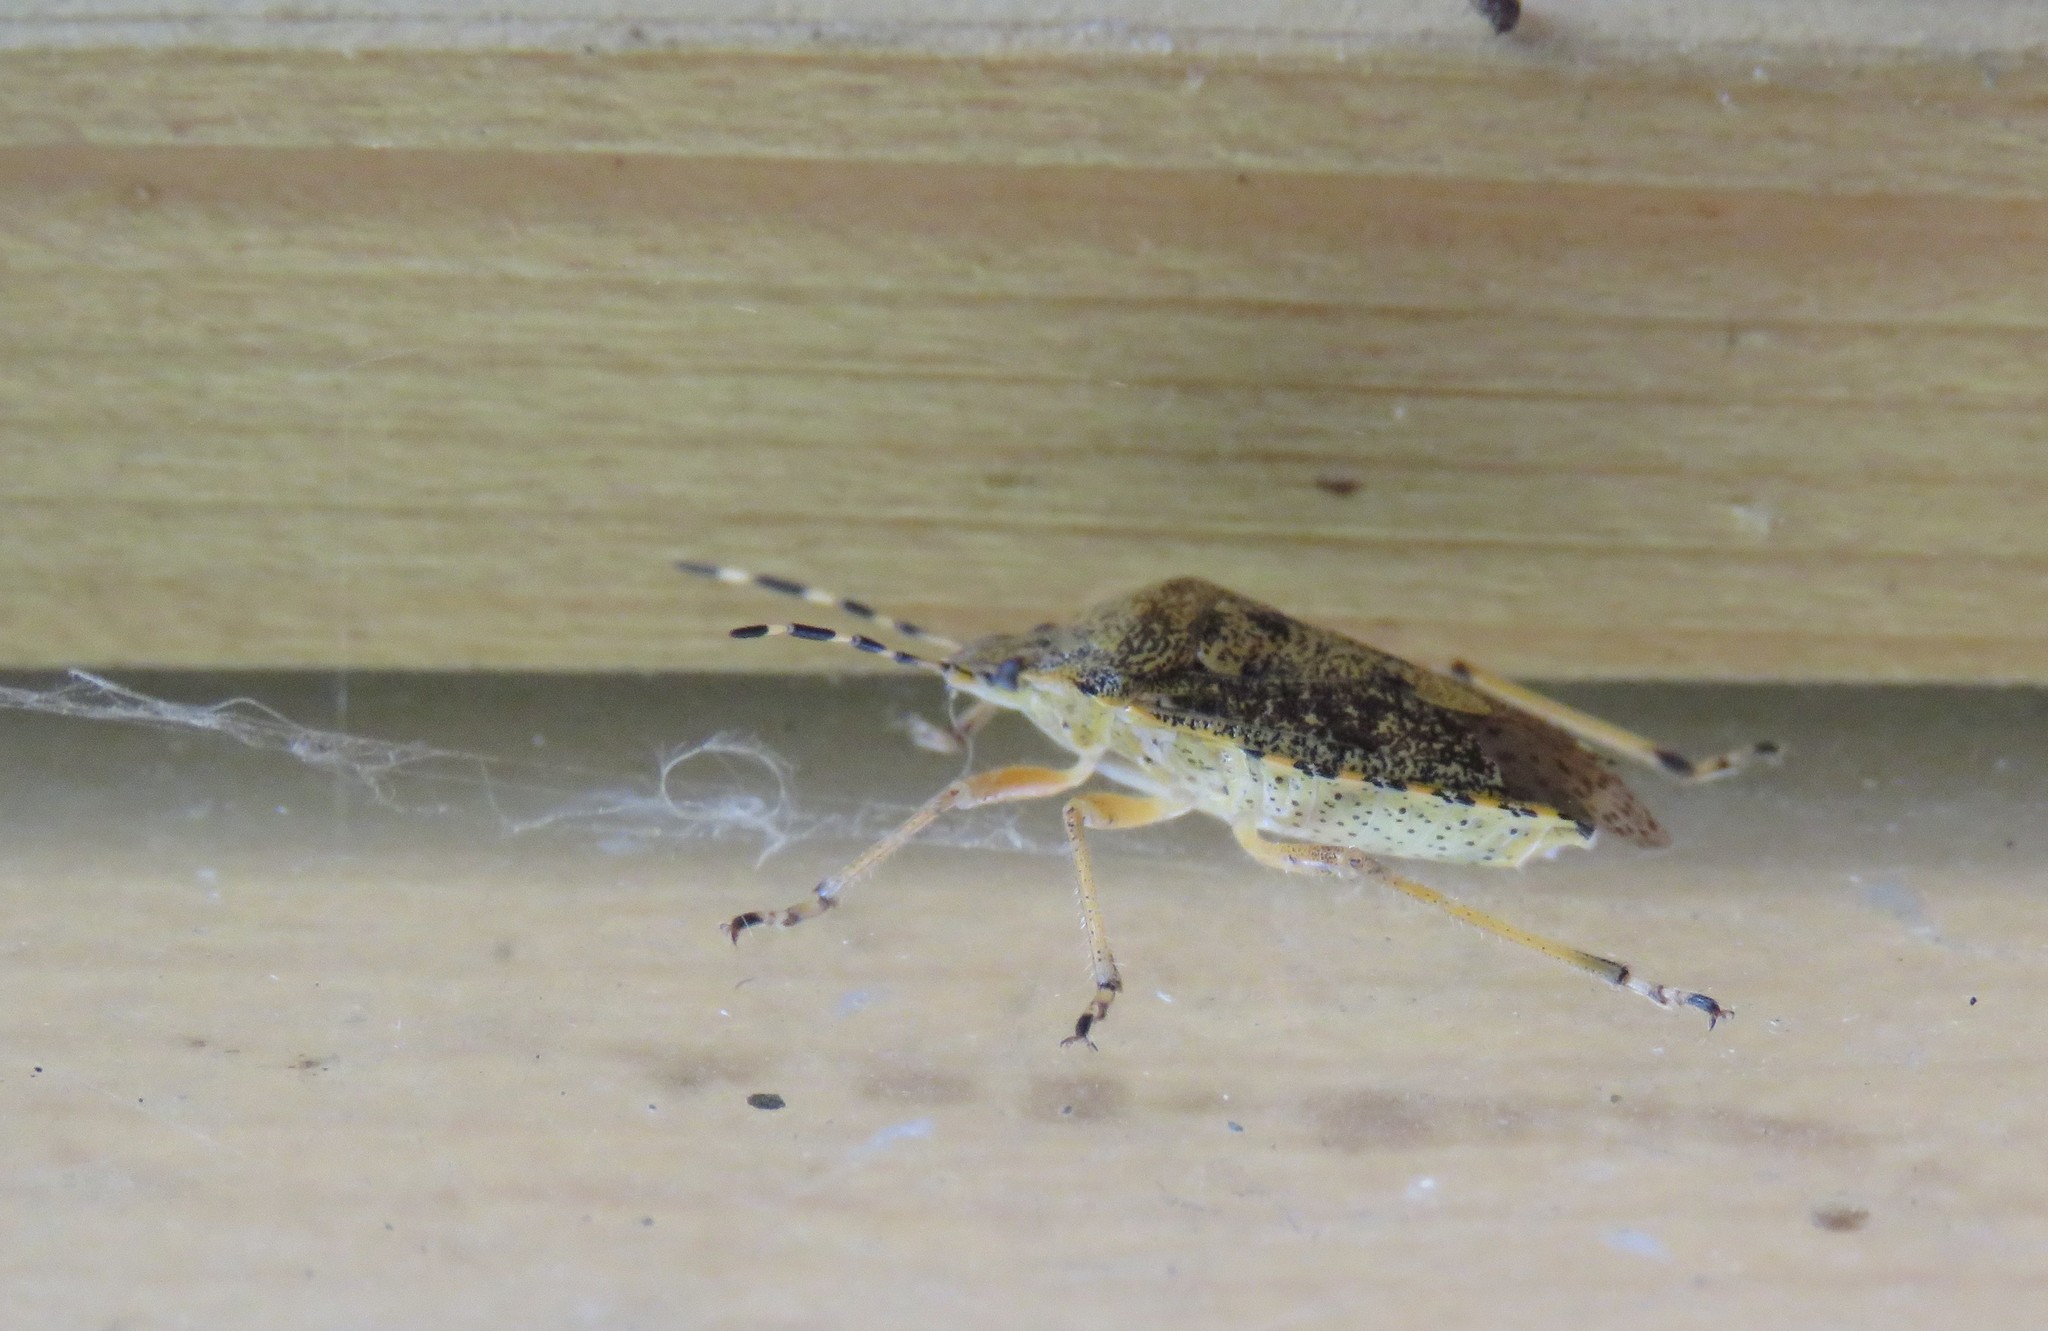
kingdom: Animalia
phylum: Arthropoda
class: Insecta
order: Hemiptera
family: Pentatomidae
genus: Rhaphigaster
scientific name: Rhaphigaster nebulosa
